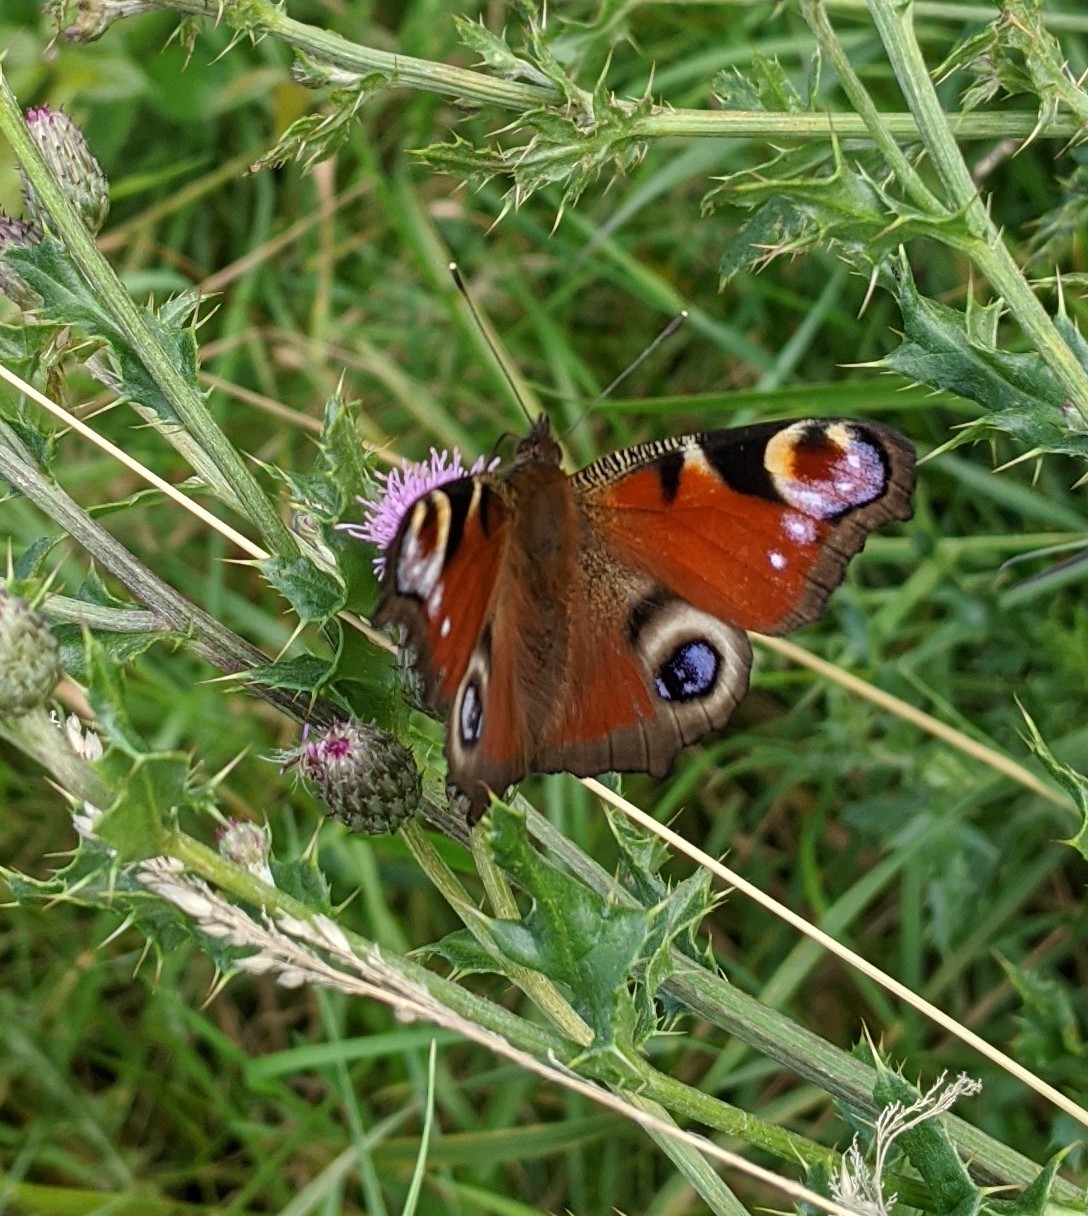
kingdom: Animalia
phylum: Arthropoda
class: Insecta
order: Lepidoptera
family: Nymphalidae
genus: Aglais
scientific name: Aglais io
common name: Peacock
